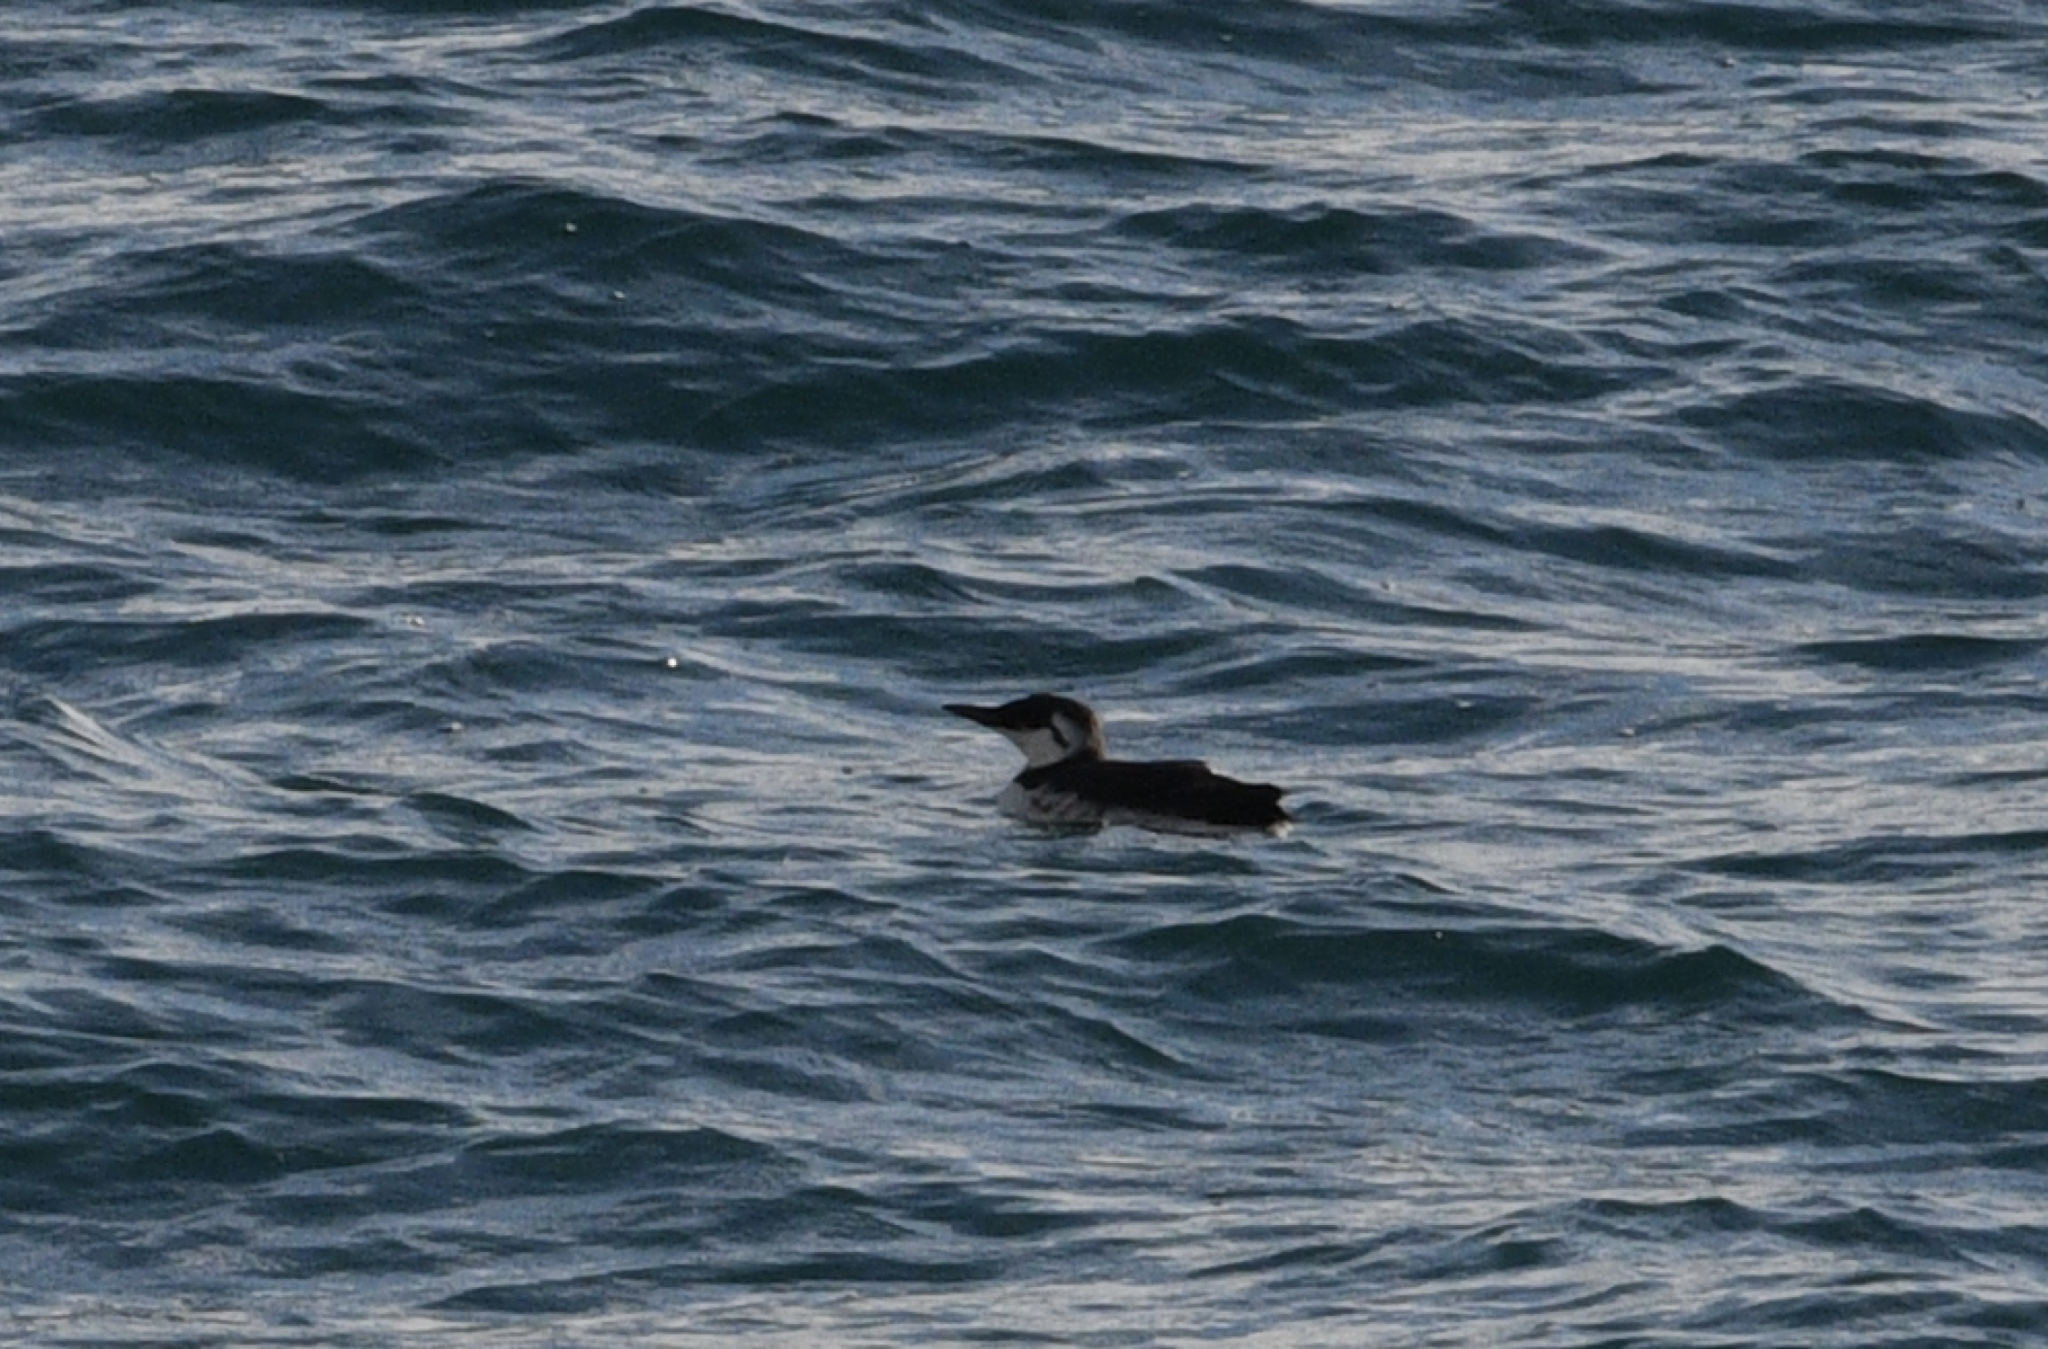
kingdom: Animalia
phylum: Chordata
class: Aves
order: Charadriiformes
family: Alcidae
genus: Uria
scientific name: Uria aalge
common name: Common murre
